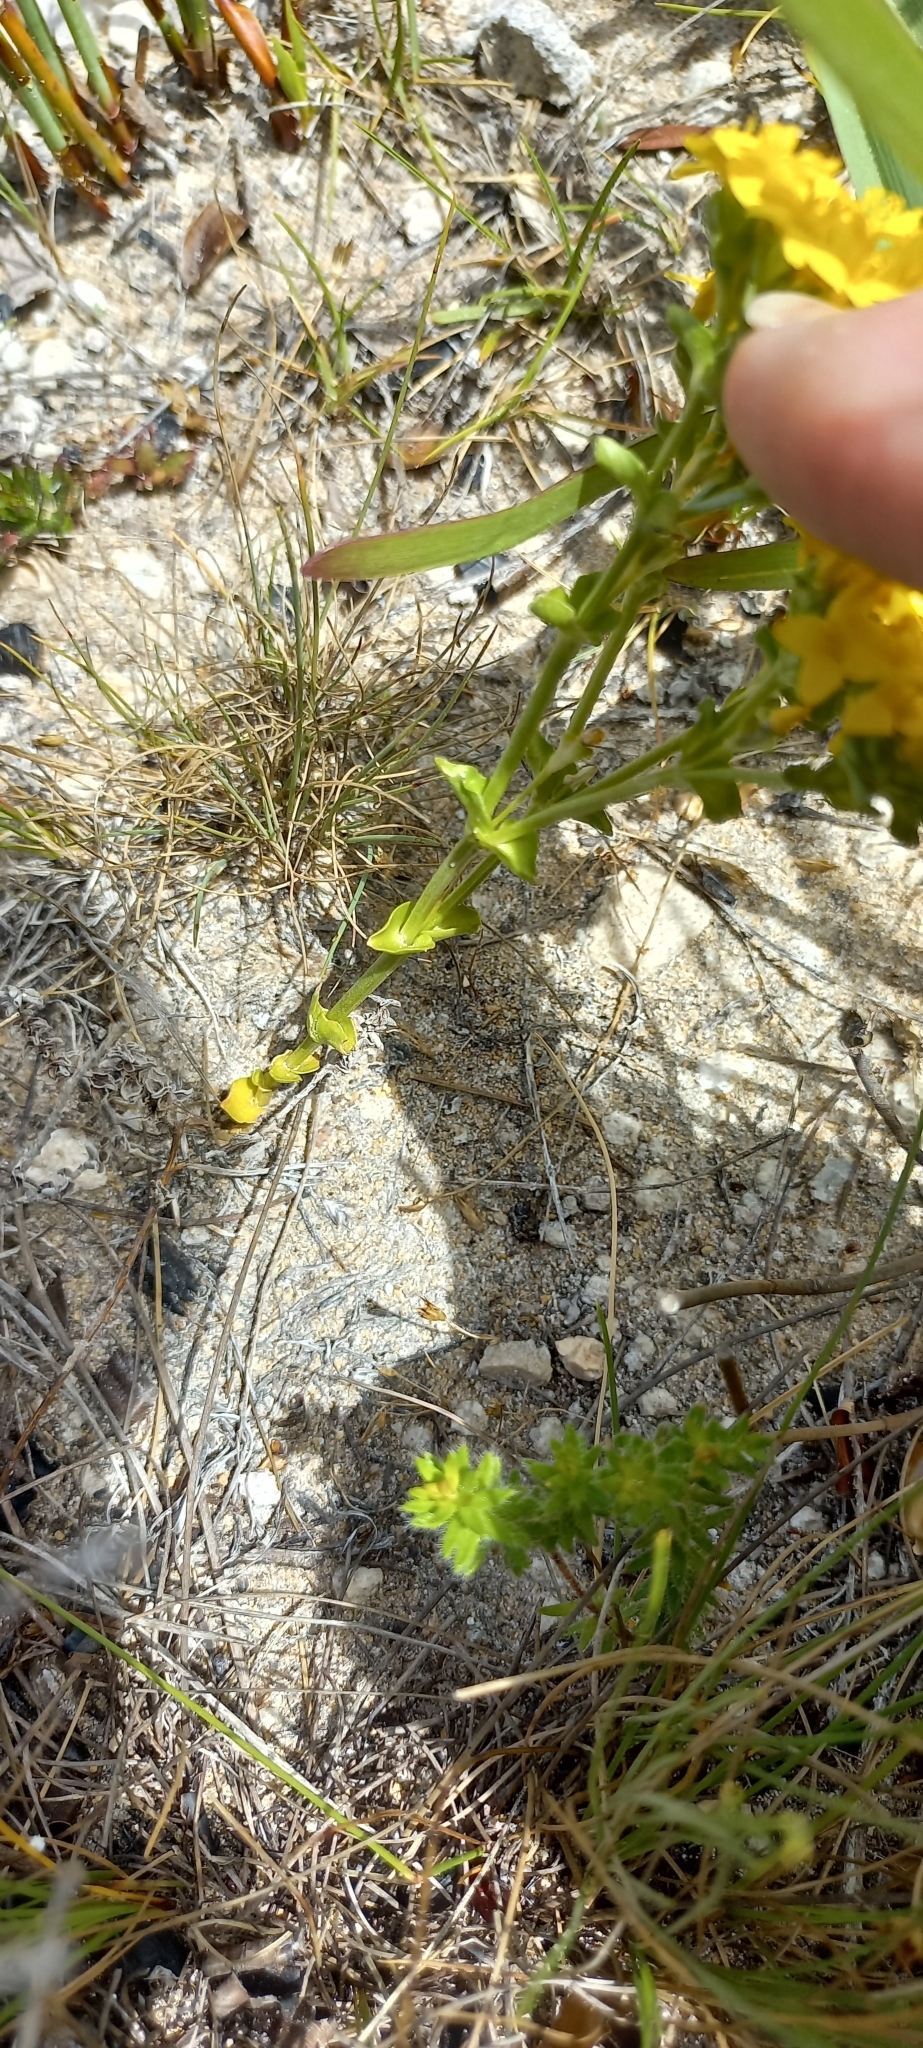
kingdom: Plantae
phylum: Tracheophyta
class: Magnoliopsida
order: Gentianales
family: Gentianaceae
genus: Sebaea
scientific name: Sebaea ambigua
